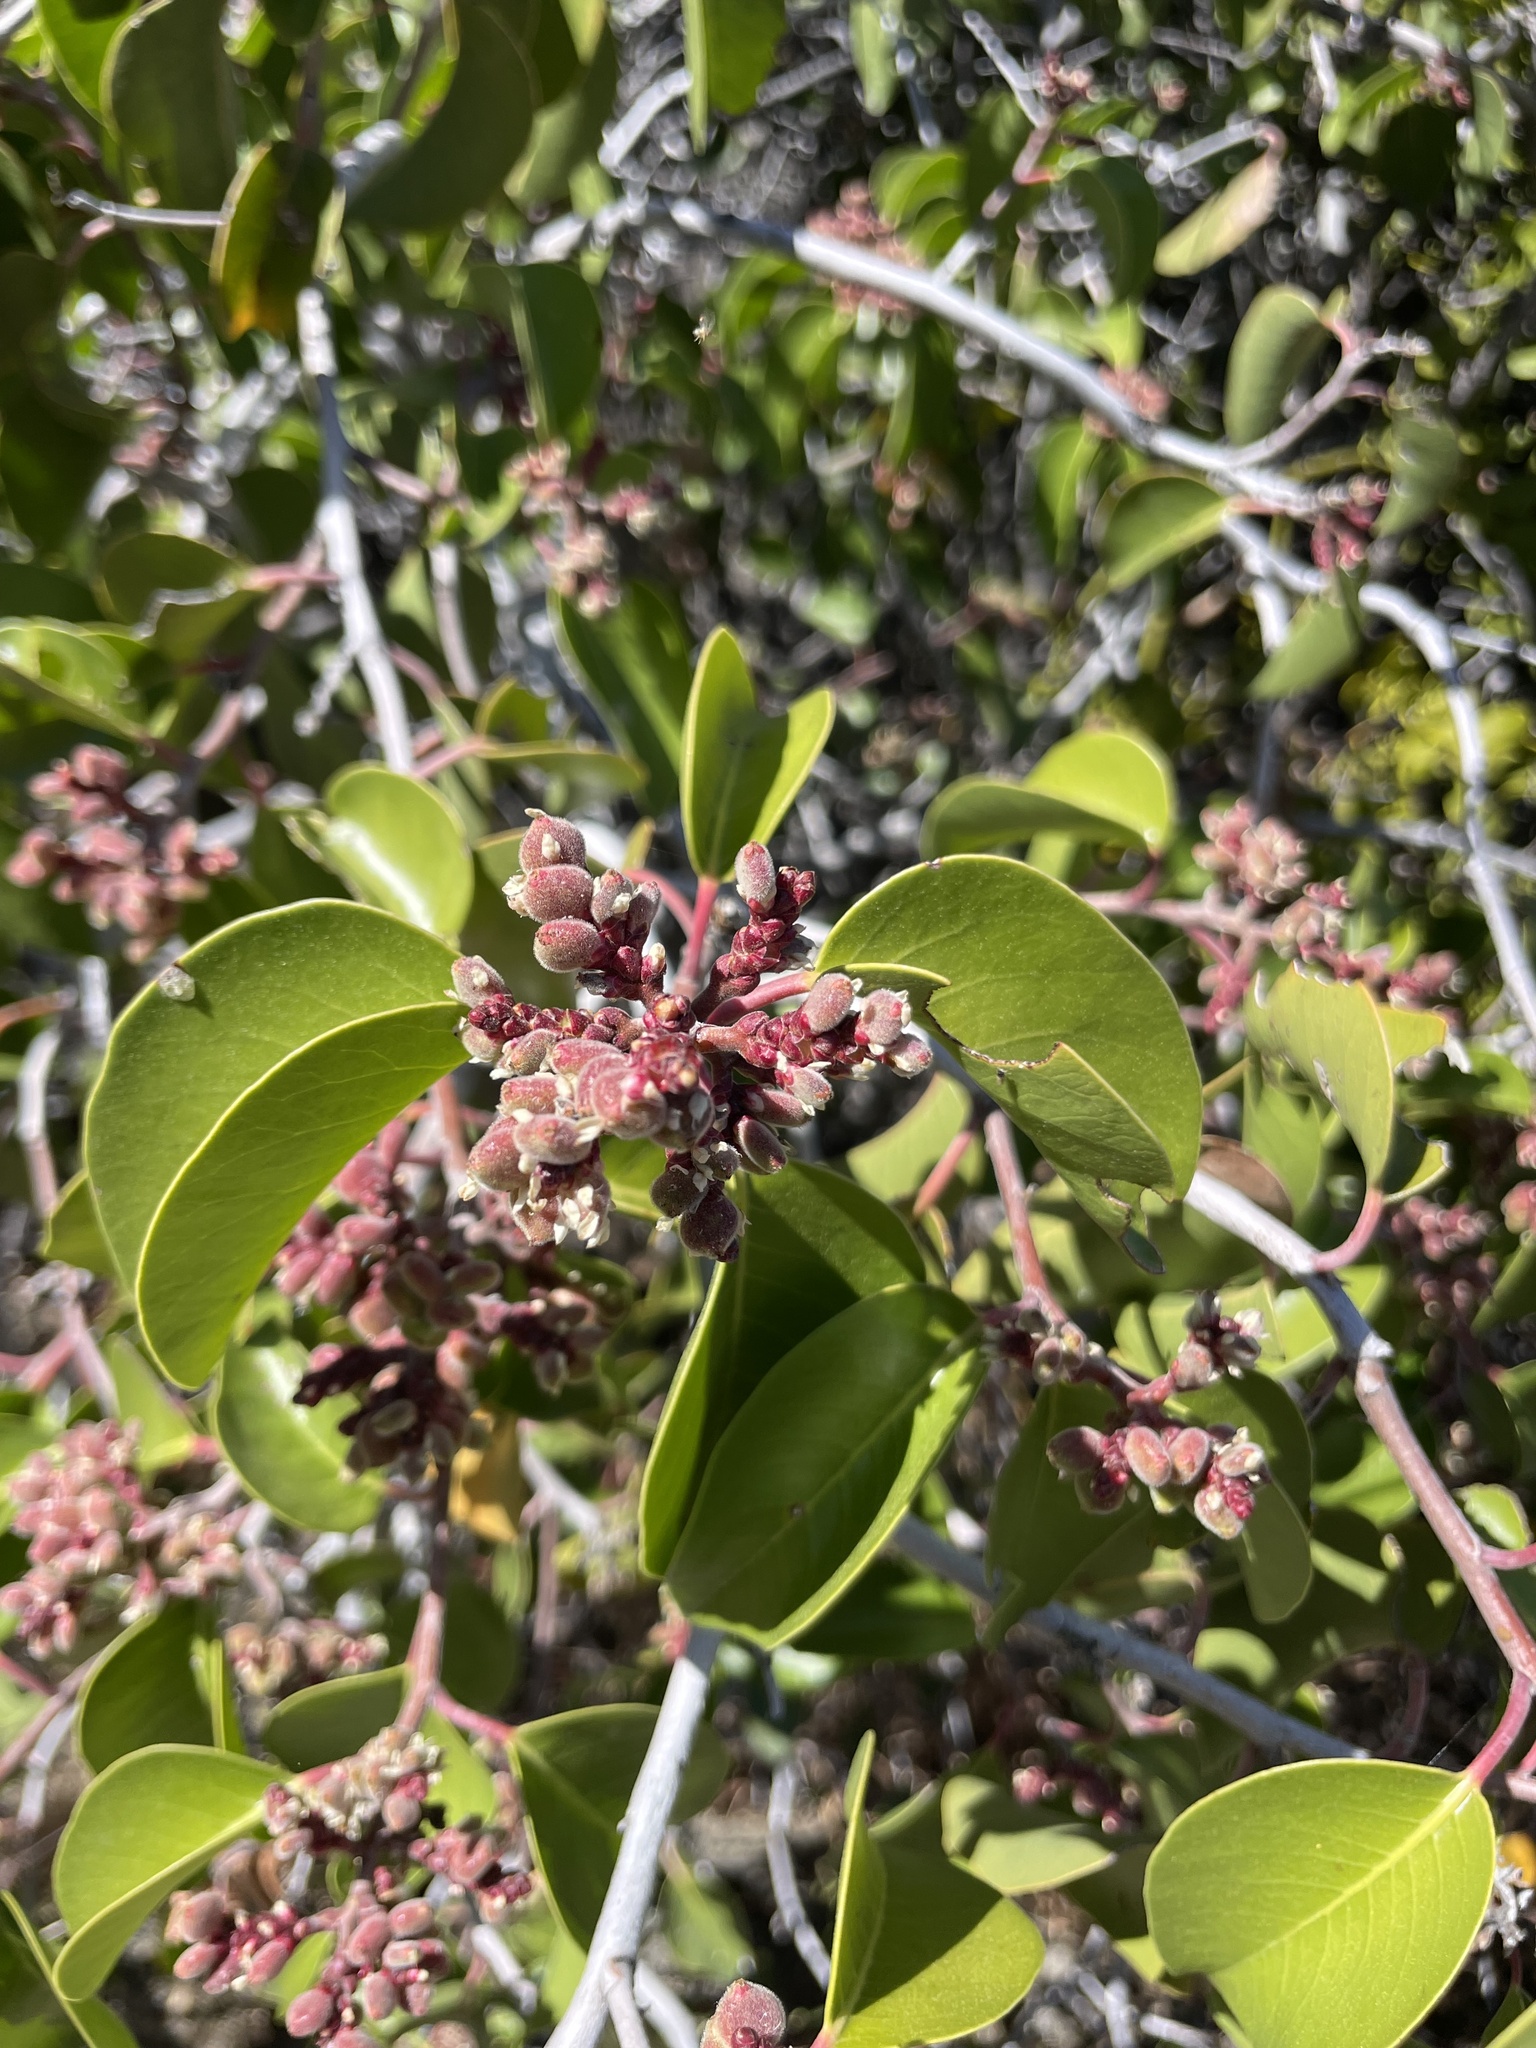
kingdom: Plantae
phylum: Tracheophyta
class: Magnoliopsida
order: Sapindales
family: Anacardiaceae
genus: Rhus
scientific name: Rhus ovata
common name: Sugar sumac
